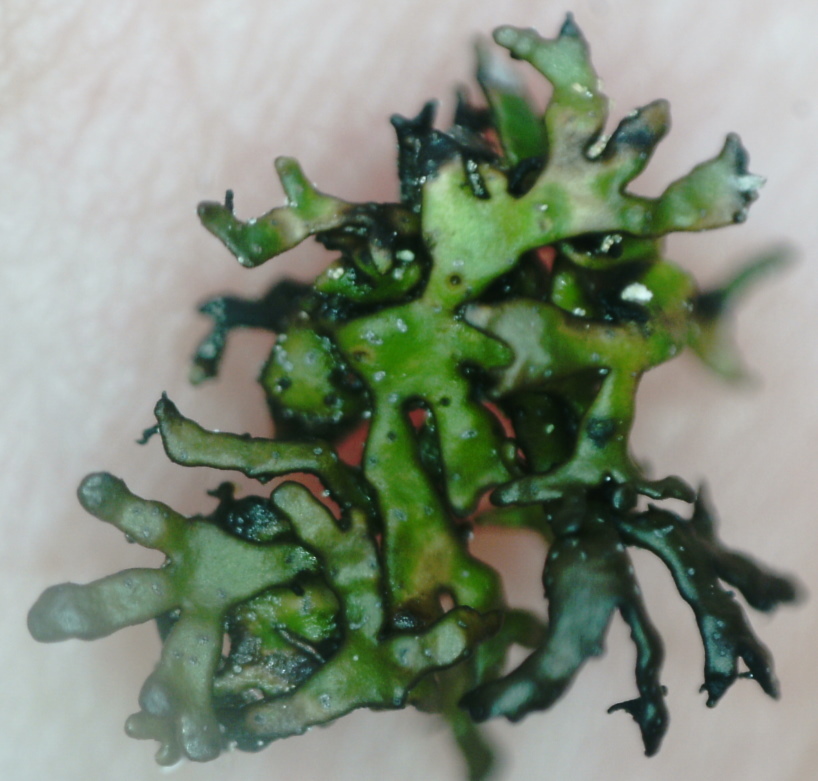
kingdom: Fungi
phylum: Ascomycota
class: Lecanoromycetes
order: Lecanorales
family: Parmeliaceae
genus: Melanelia
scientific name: Melanelia stygia
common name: Alpine camouflage lichen
